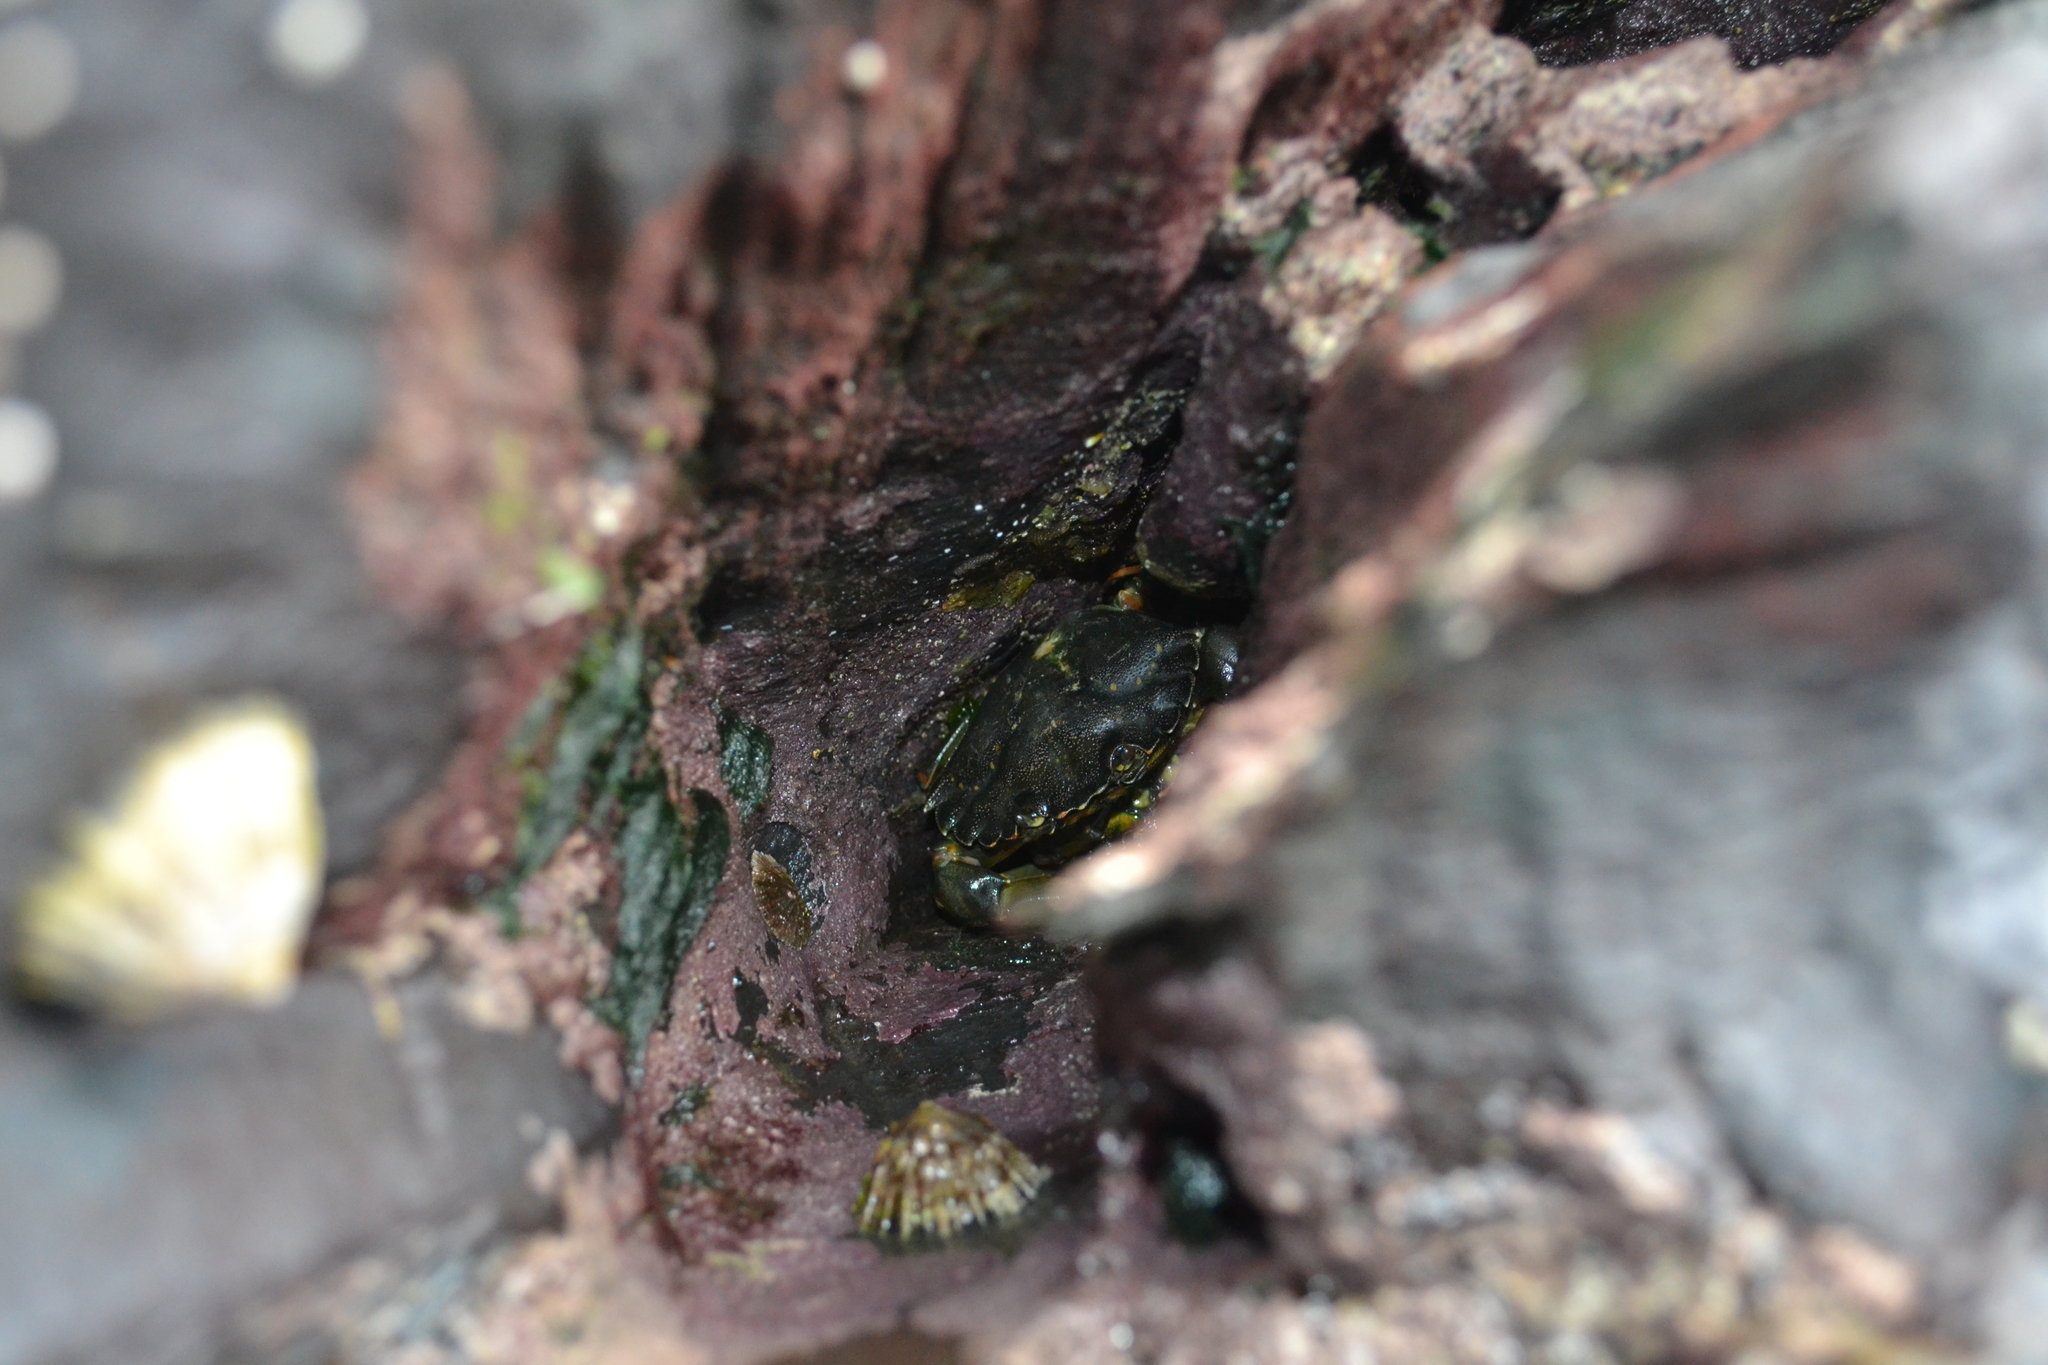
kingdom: Animalia
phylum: Arthropoda
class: Malacostraca
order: Decapoda
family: Carcinidae
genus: Carcinus
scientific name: Carcinus maenas
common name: European green crab
